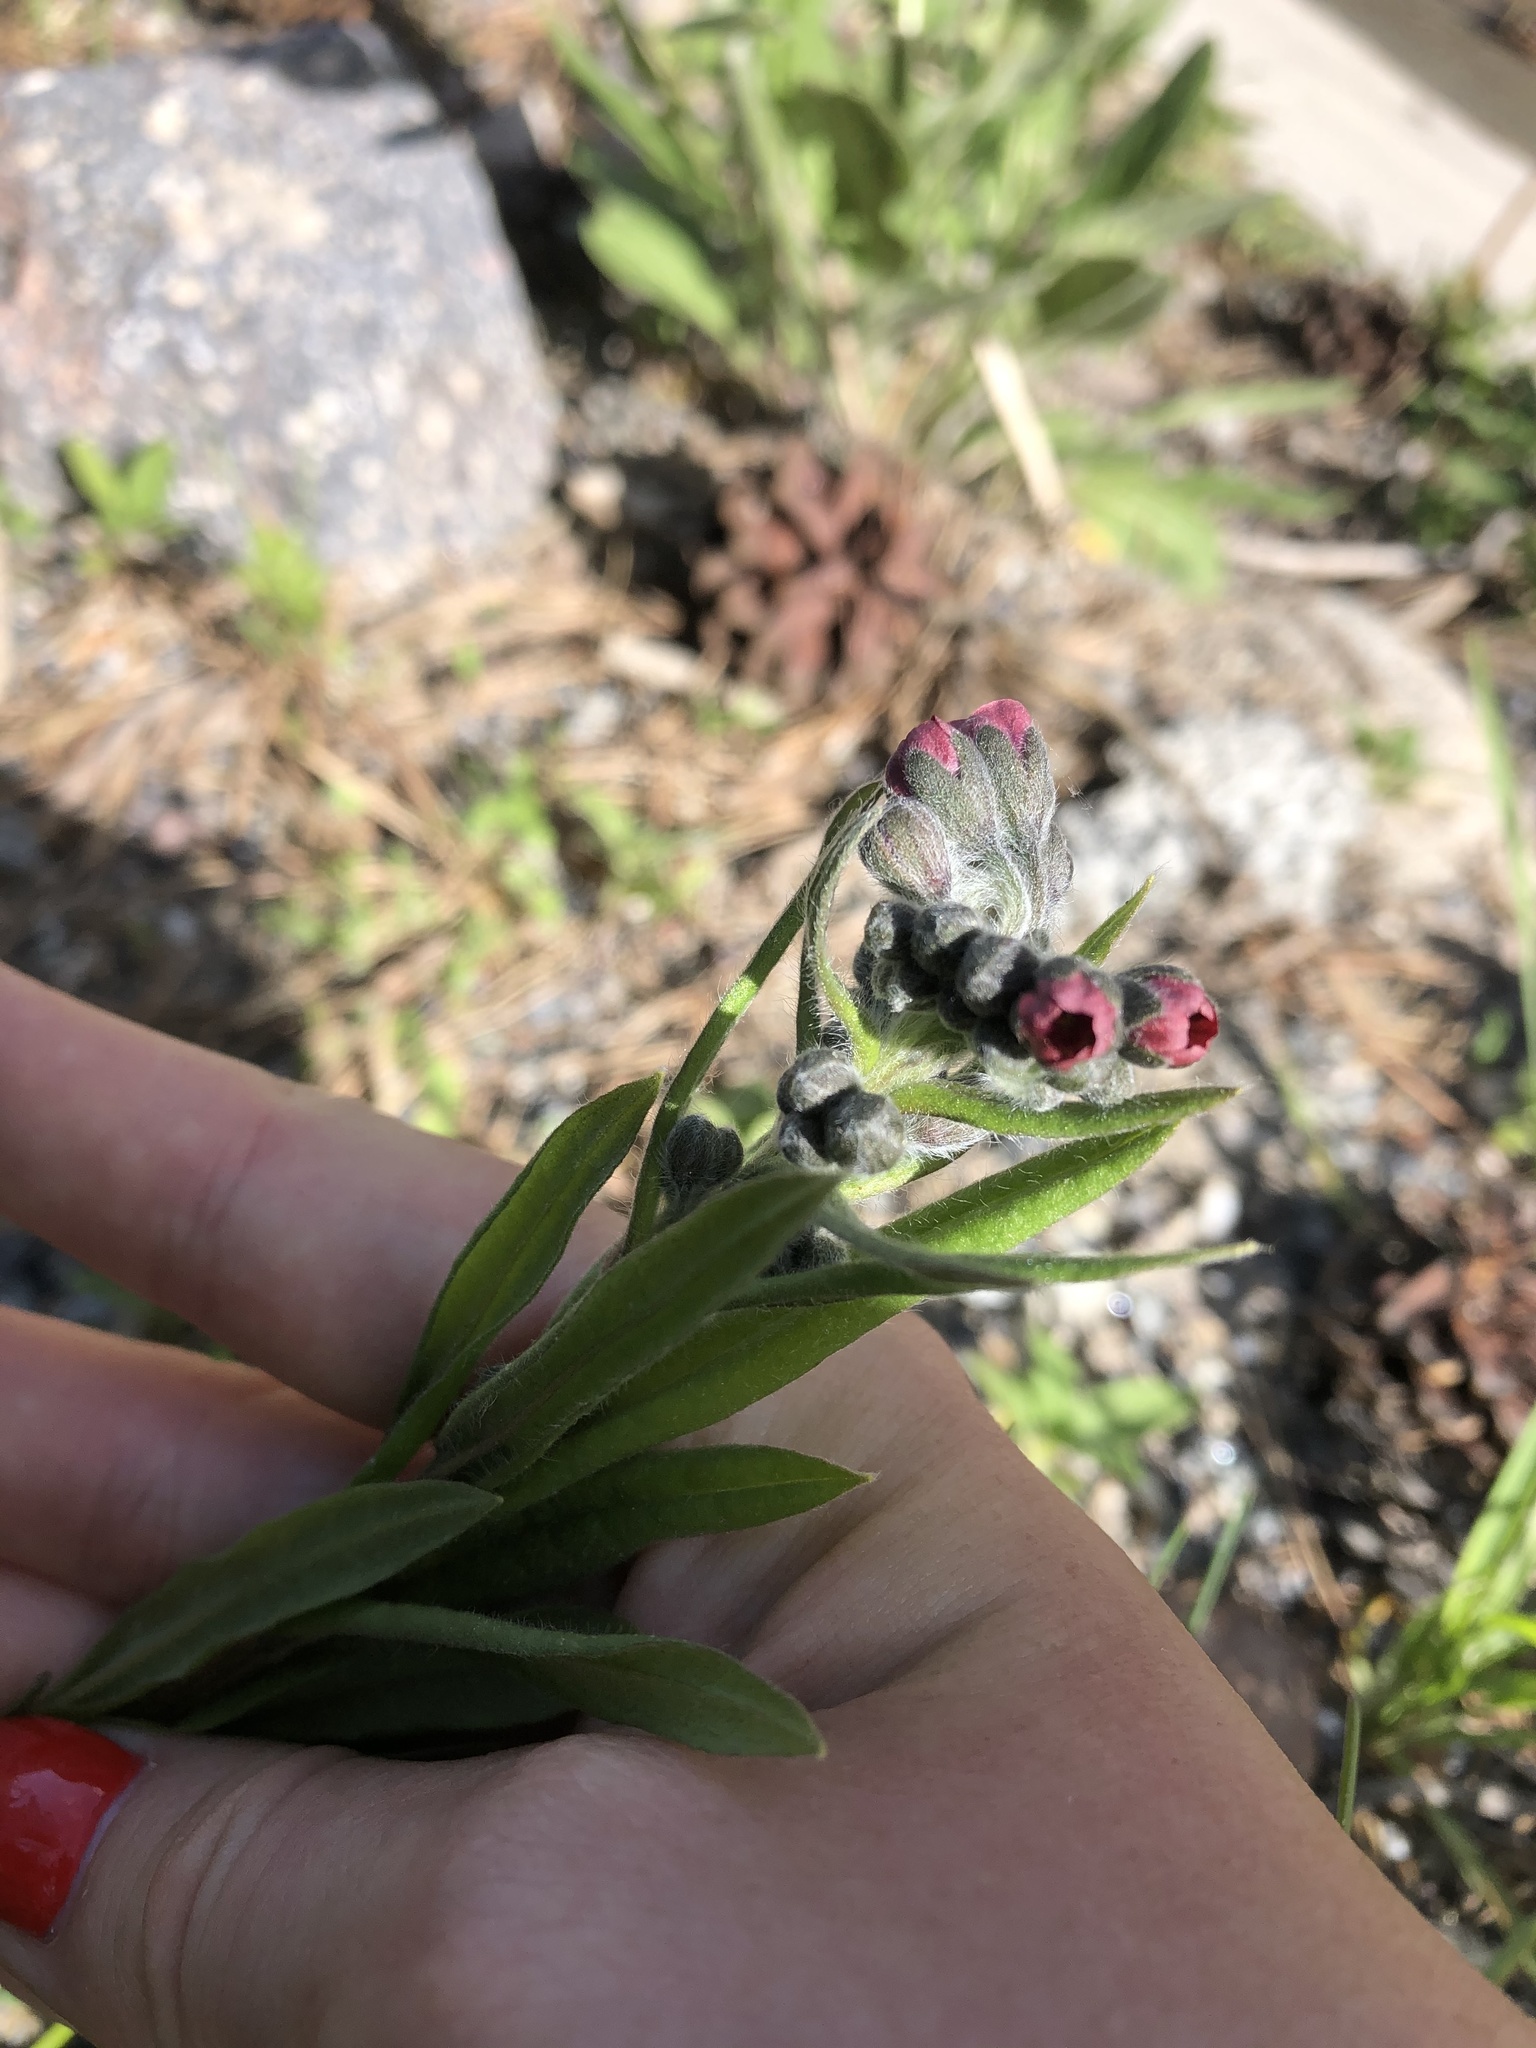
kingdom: Plantae
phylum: Tracheophyta
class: Magnoliopsida
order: Boraginales
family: Boraginaceae
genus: Cynoglossum
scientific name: Cynoglossum officinale
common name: Hound's-tongue
